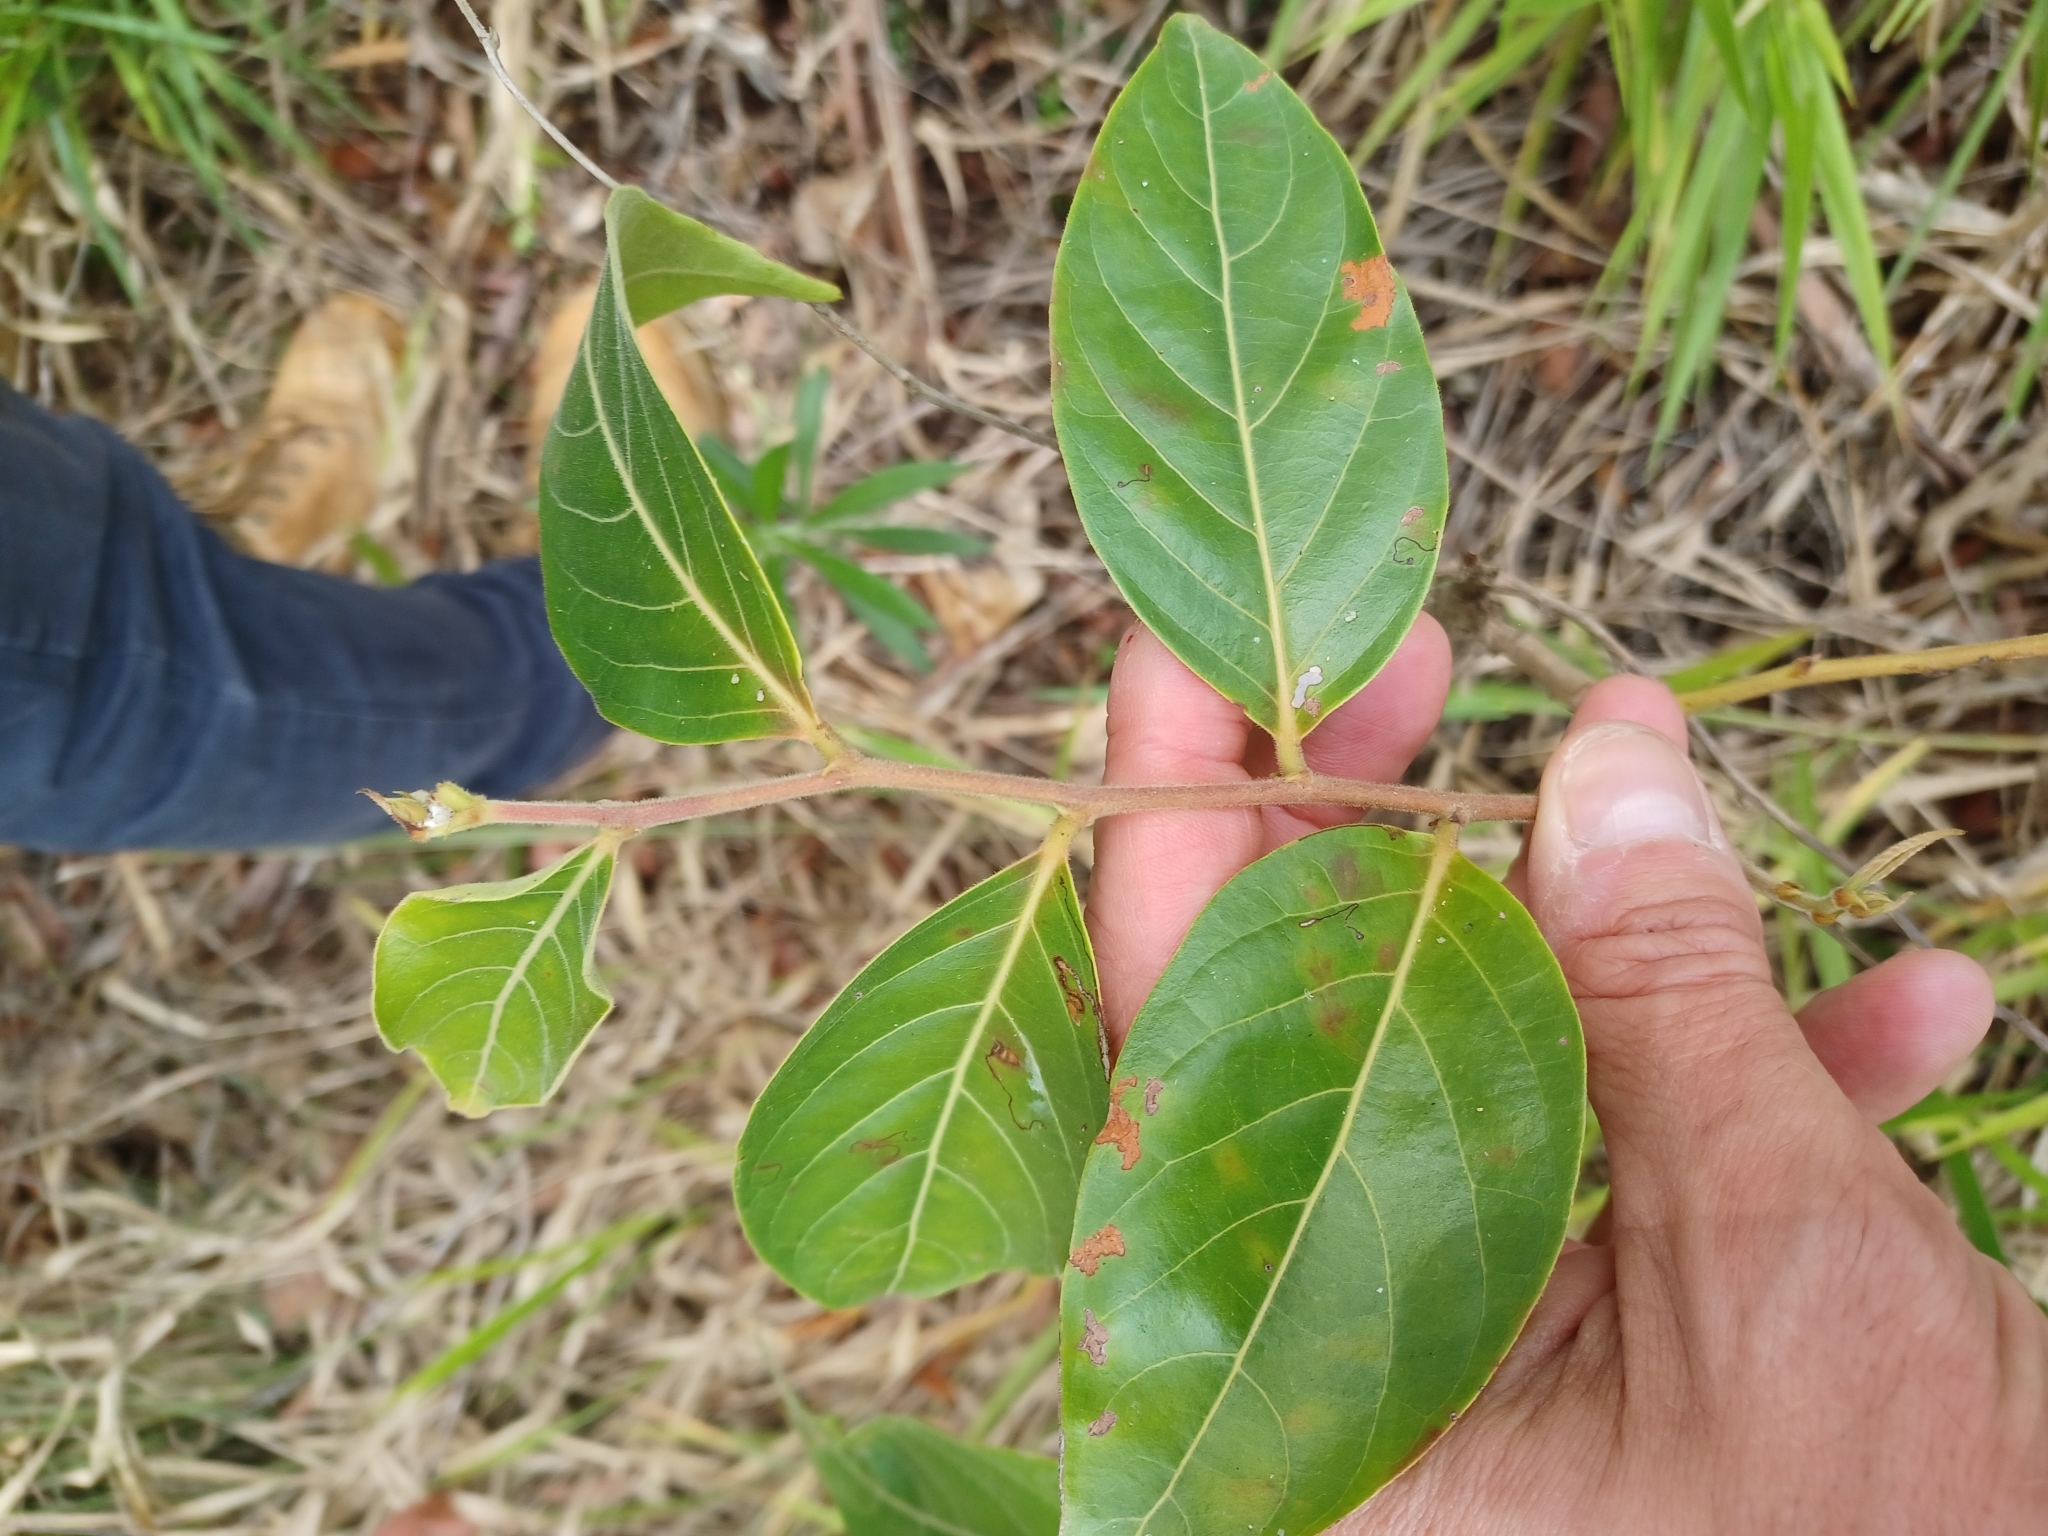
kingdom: Plantae
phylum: Tracheophyta
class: Magnoliopsida
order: Malpighiales
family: Phyllanthaceae
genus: Glochidion
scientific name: Glochidion zeylanicum
